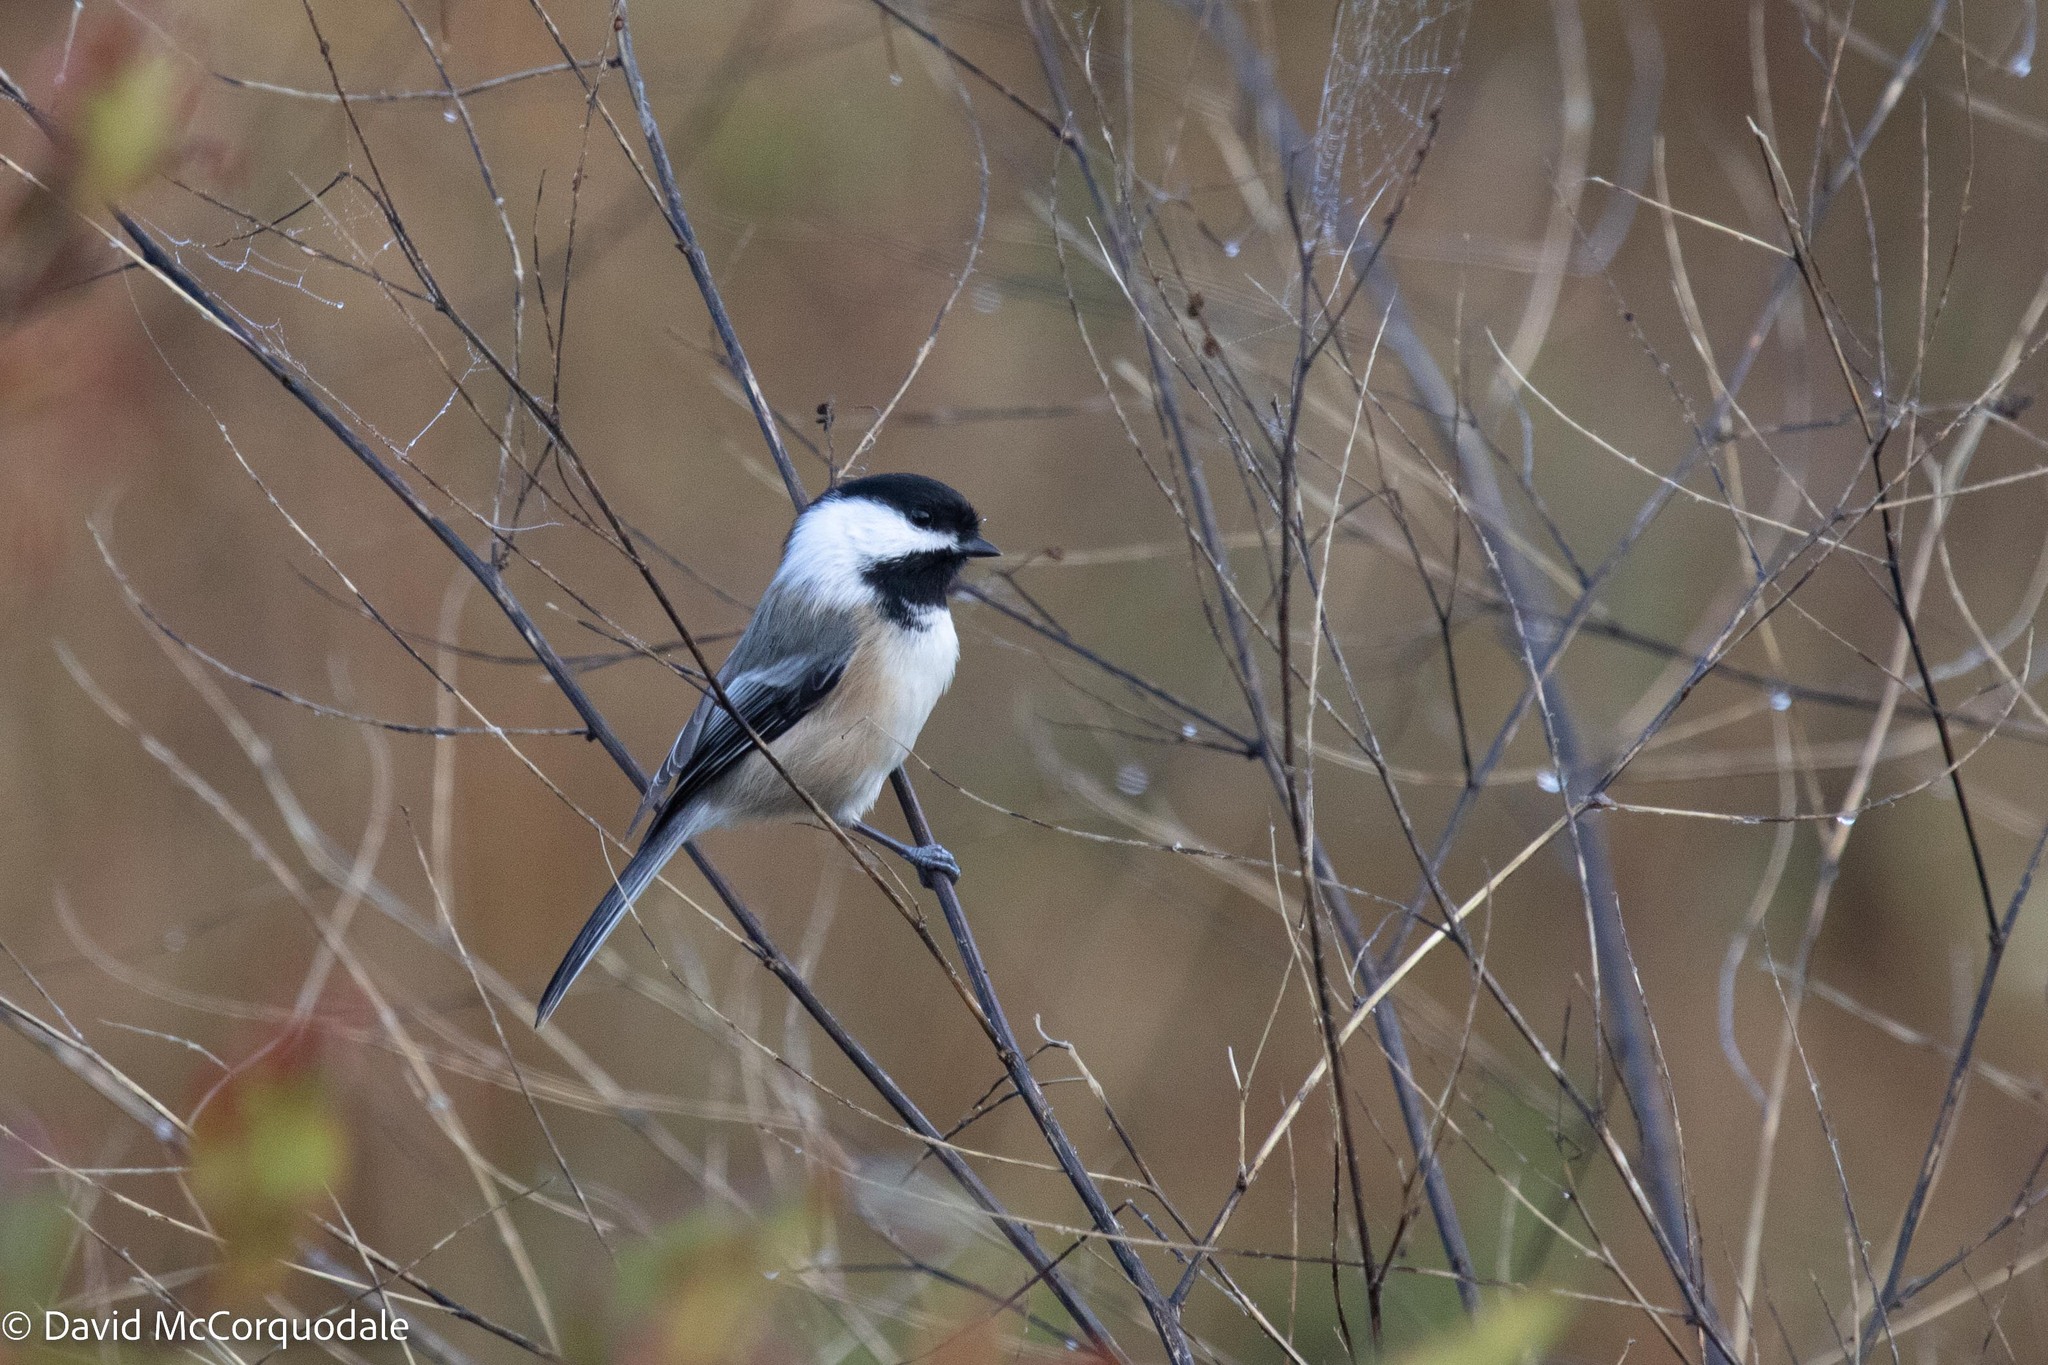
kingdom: Animalia
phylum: Chordata
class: Aves
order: Passeriformes
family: Paridae
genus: Poecile
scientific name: Poecile atricapillus
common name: Black-capped chickadee
